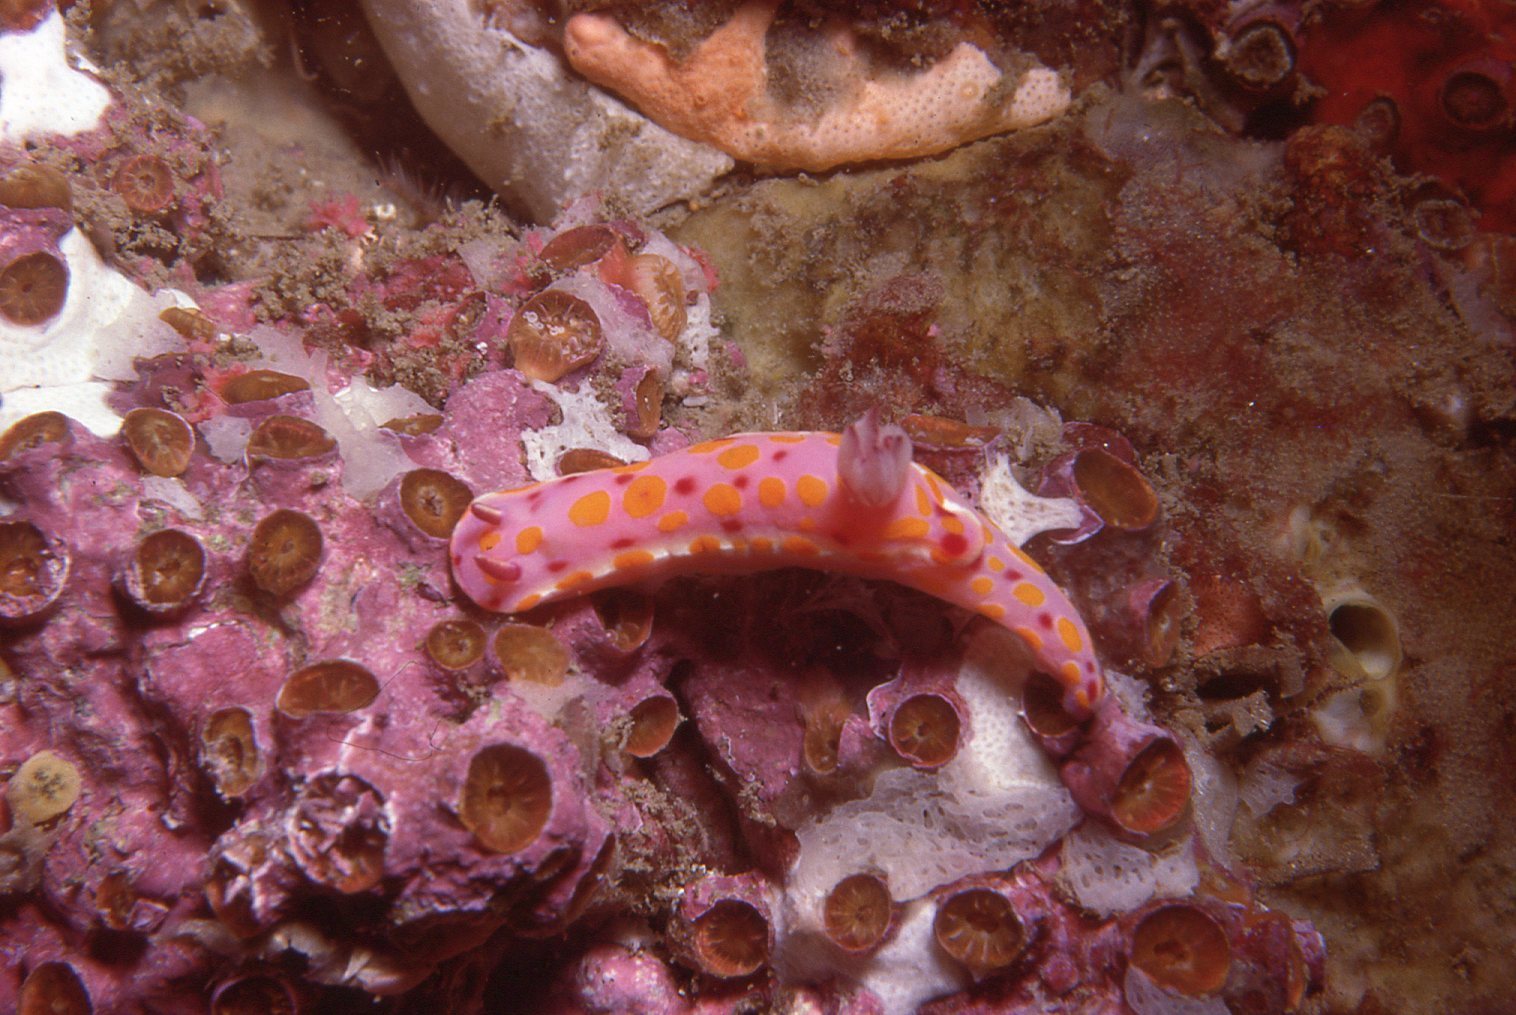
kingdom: Animalia
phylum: Mollusca
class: Gastropoda
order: Nudibranchia
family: Chromodorididae
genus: Ceratosoma
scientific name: Ceratosoma amoenum
